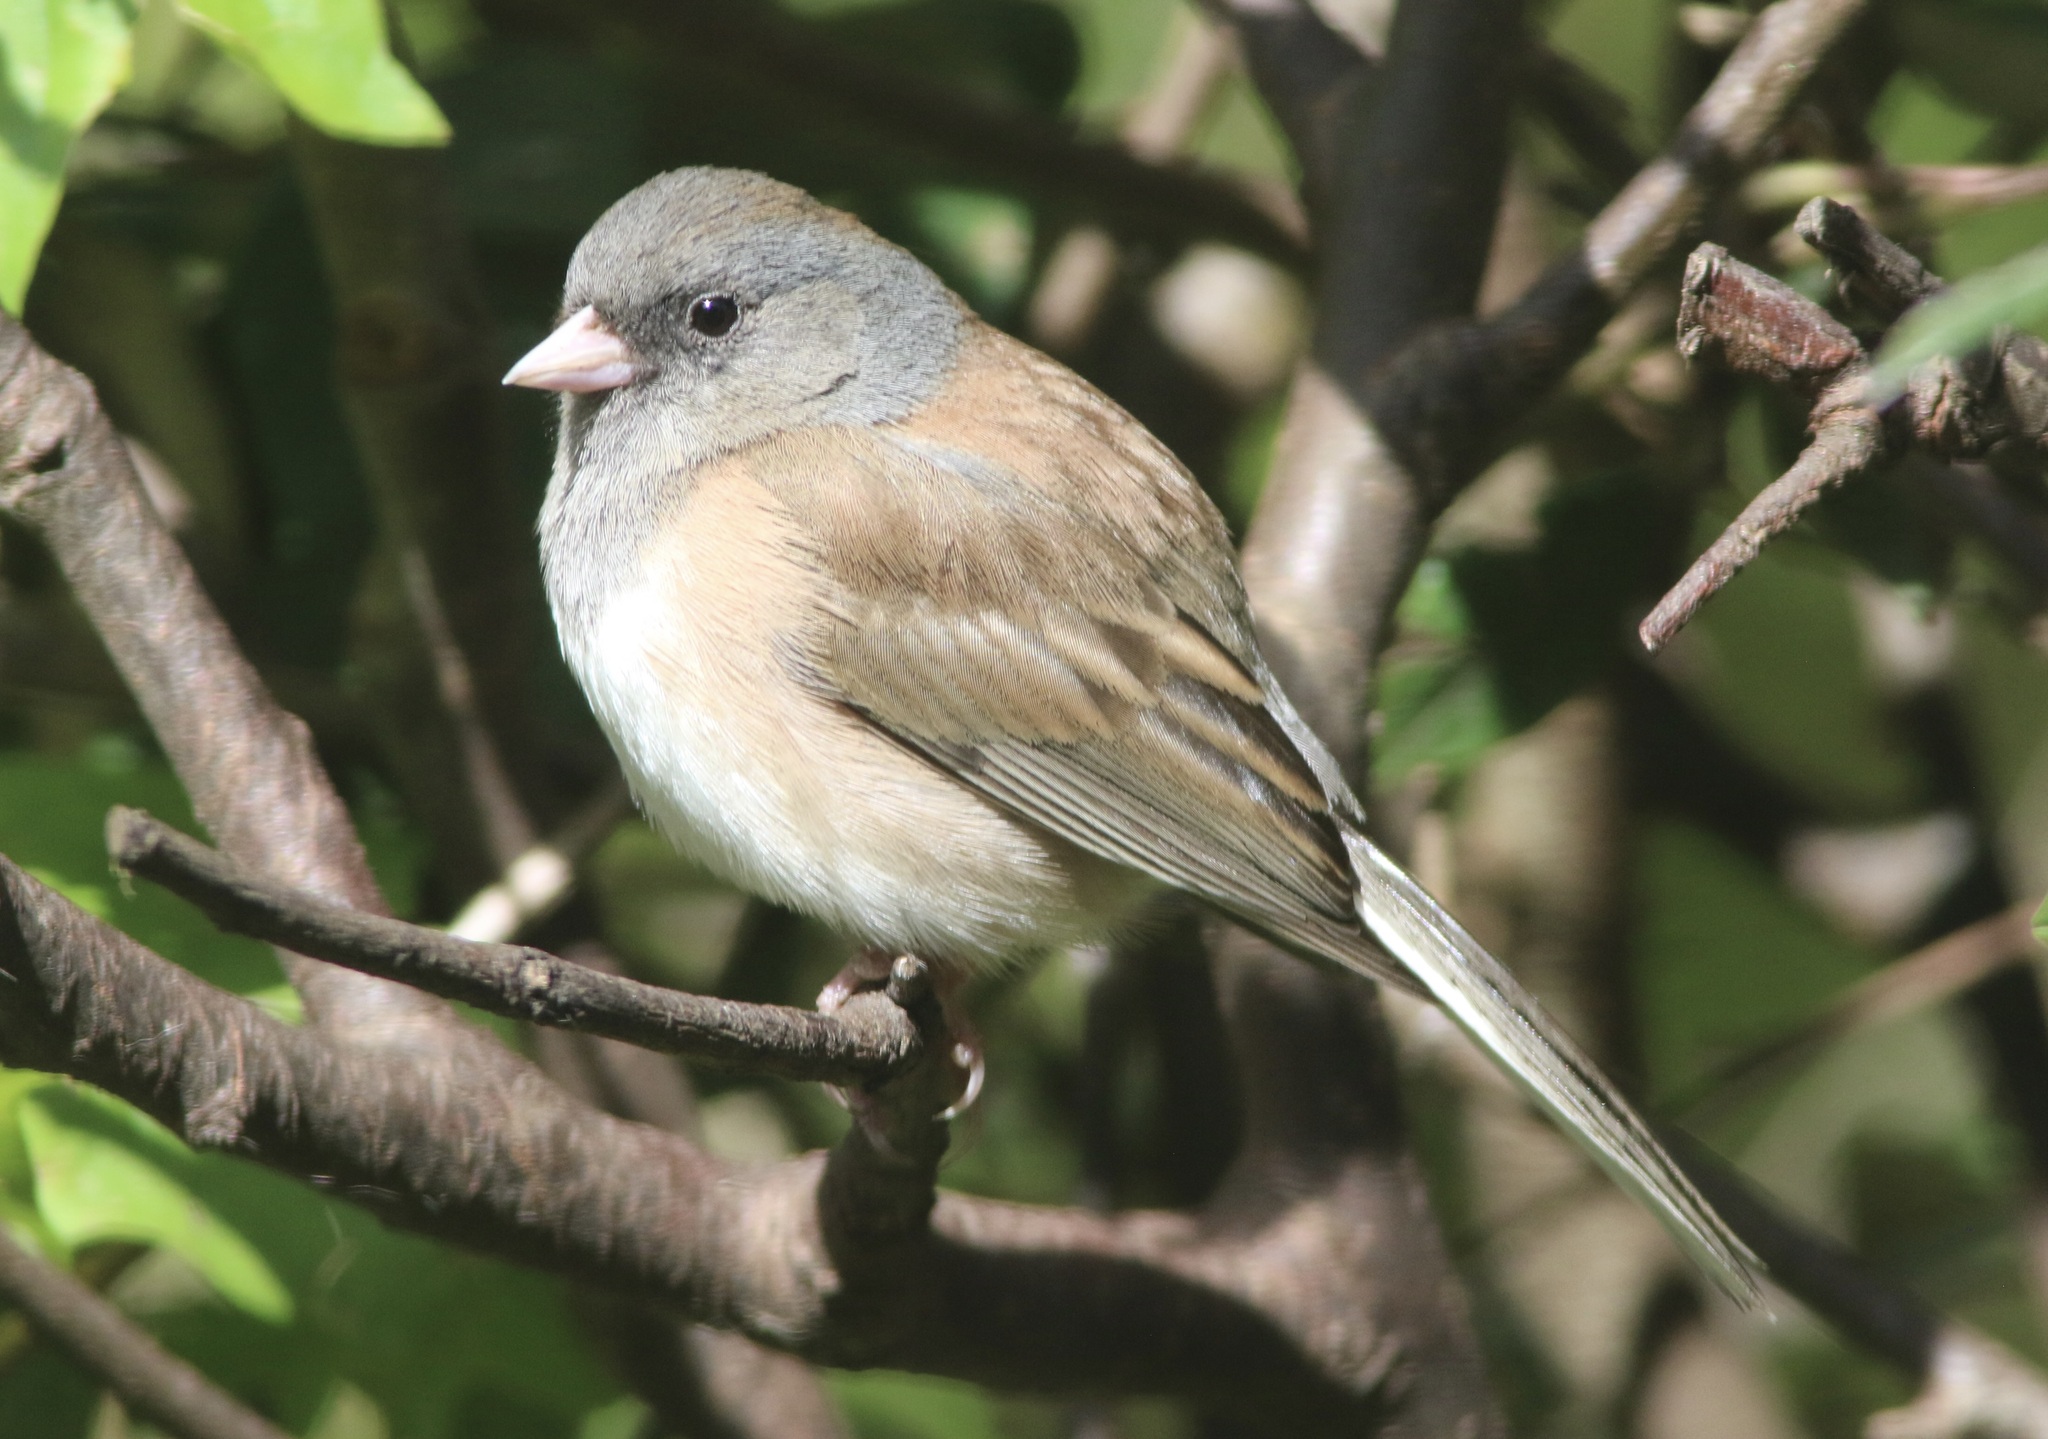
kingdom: Animalia
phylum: Chordata
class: Aves
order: Passeriformes
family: Passerellidae
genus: Junco
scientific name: Junco hyemalis
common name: Dark-eyed junco
